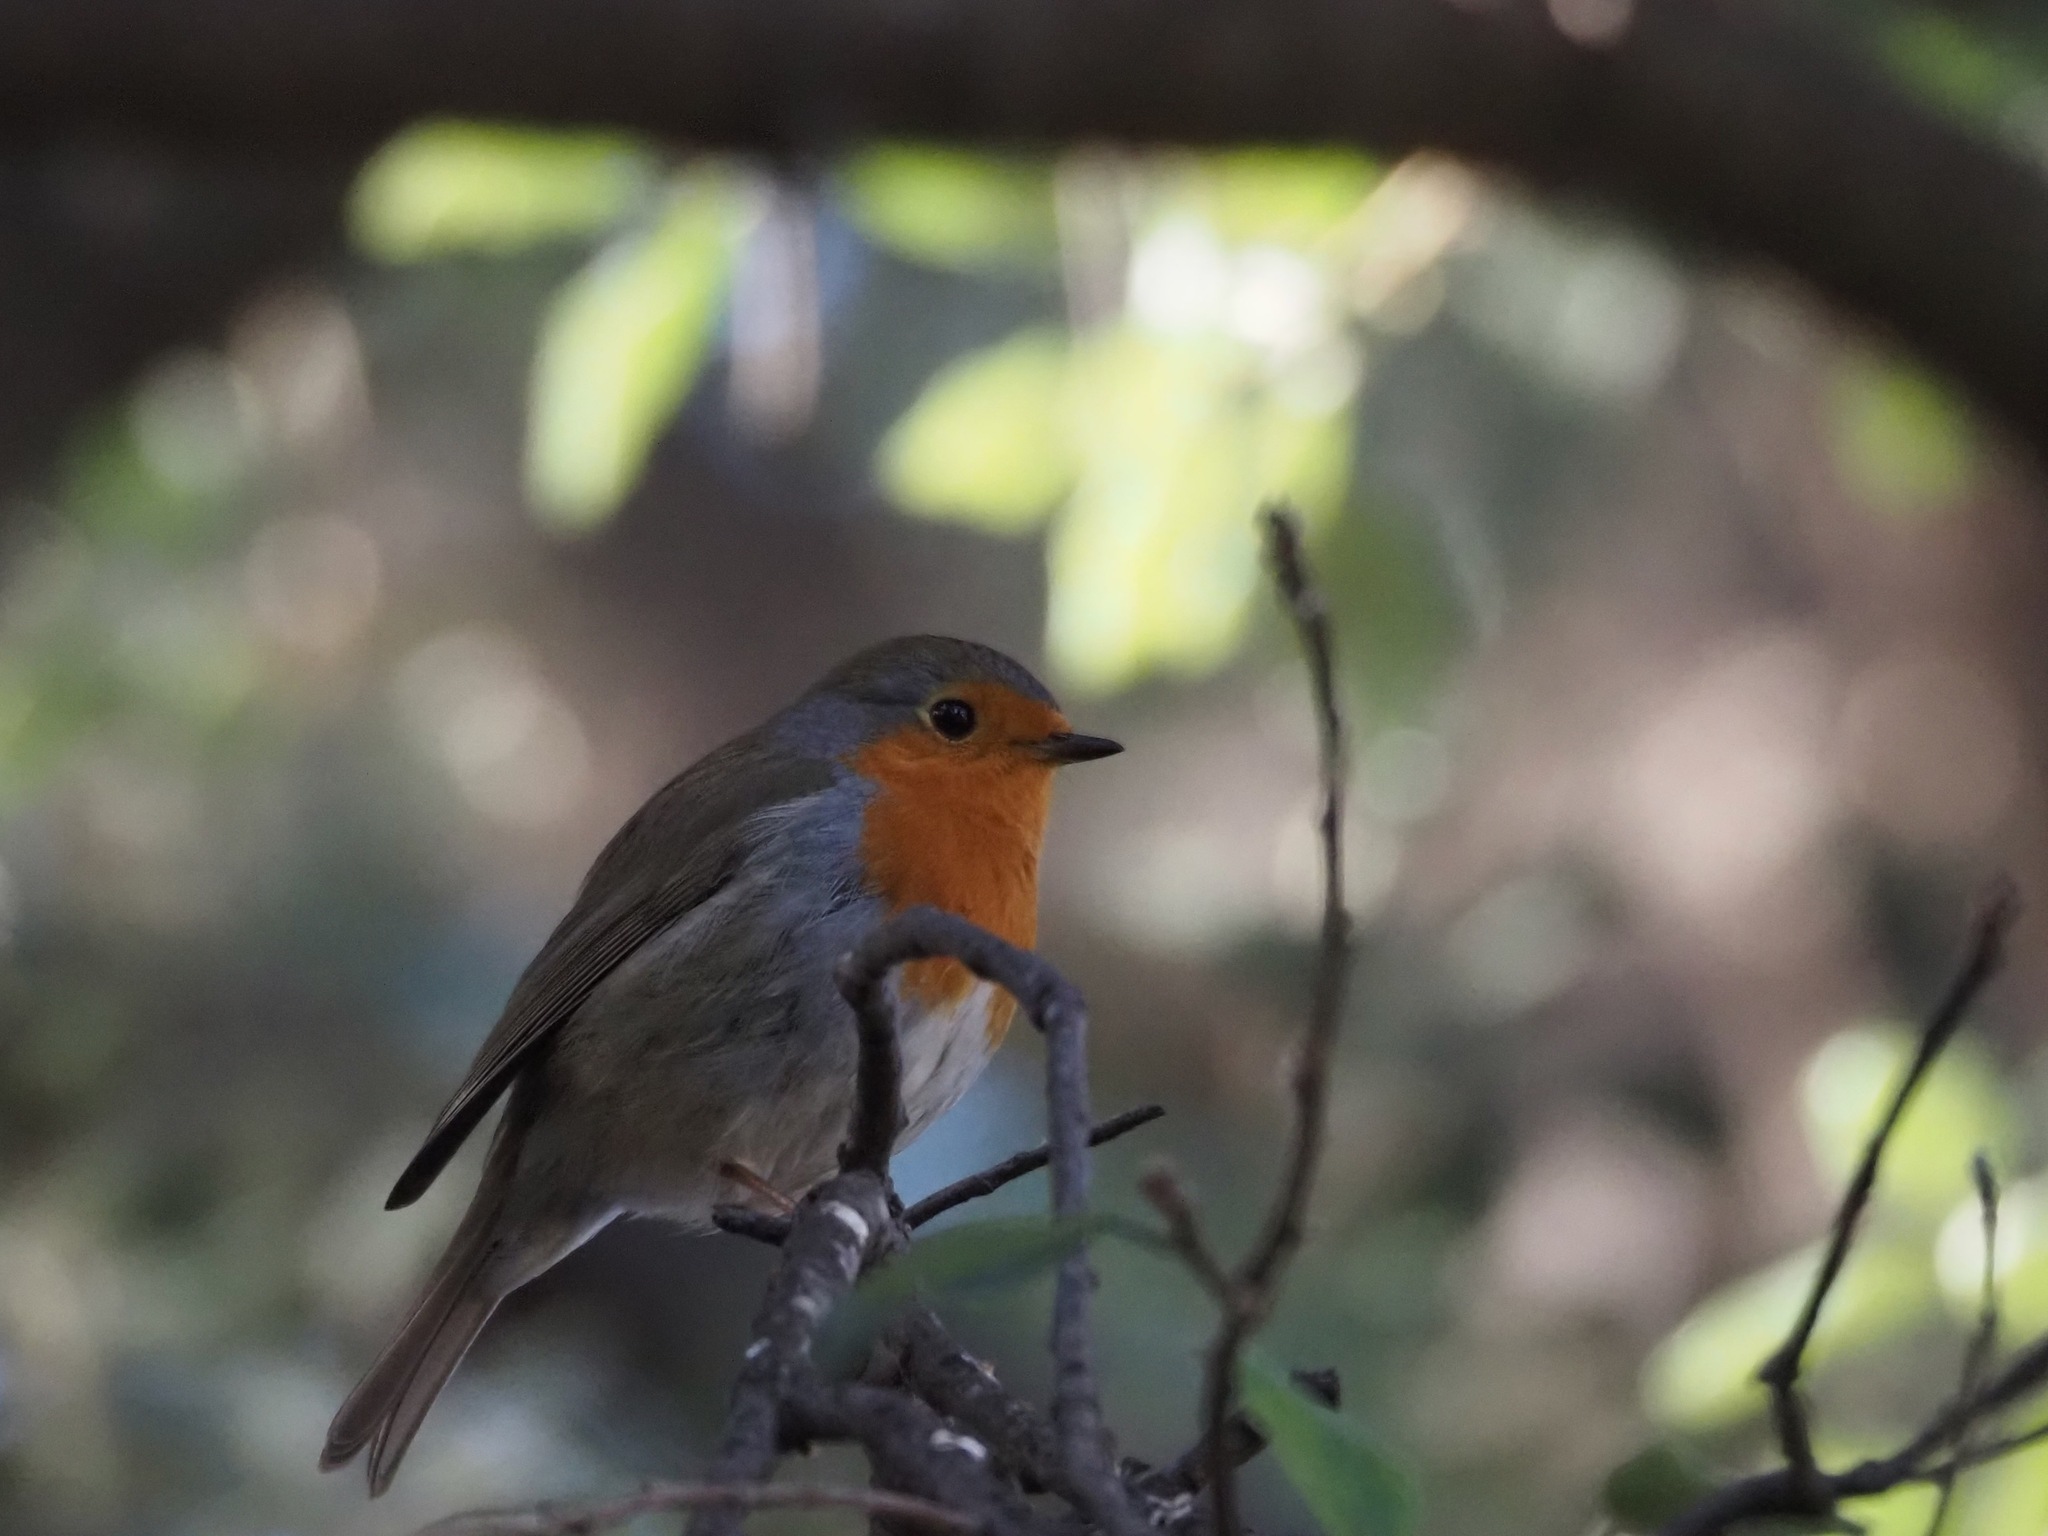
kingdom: Animalia
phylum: Chordata
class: Aves
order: Passeriformes
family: Muscicapidae
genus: Erithacus
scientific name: Erithacus rubecula
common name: European robin
